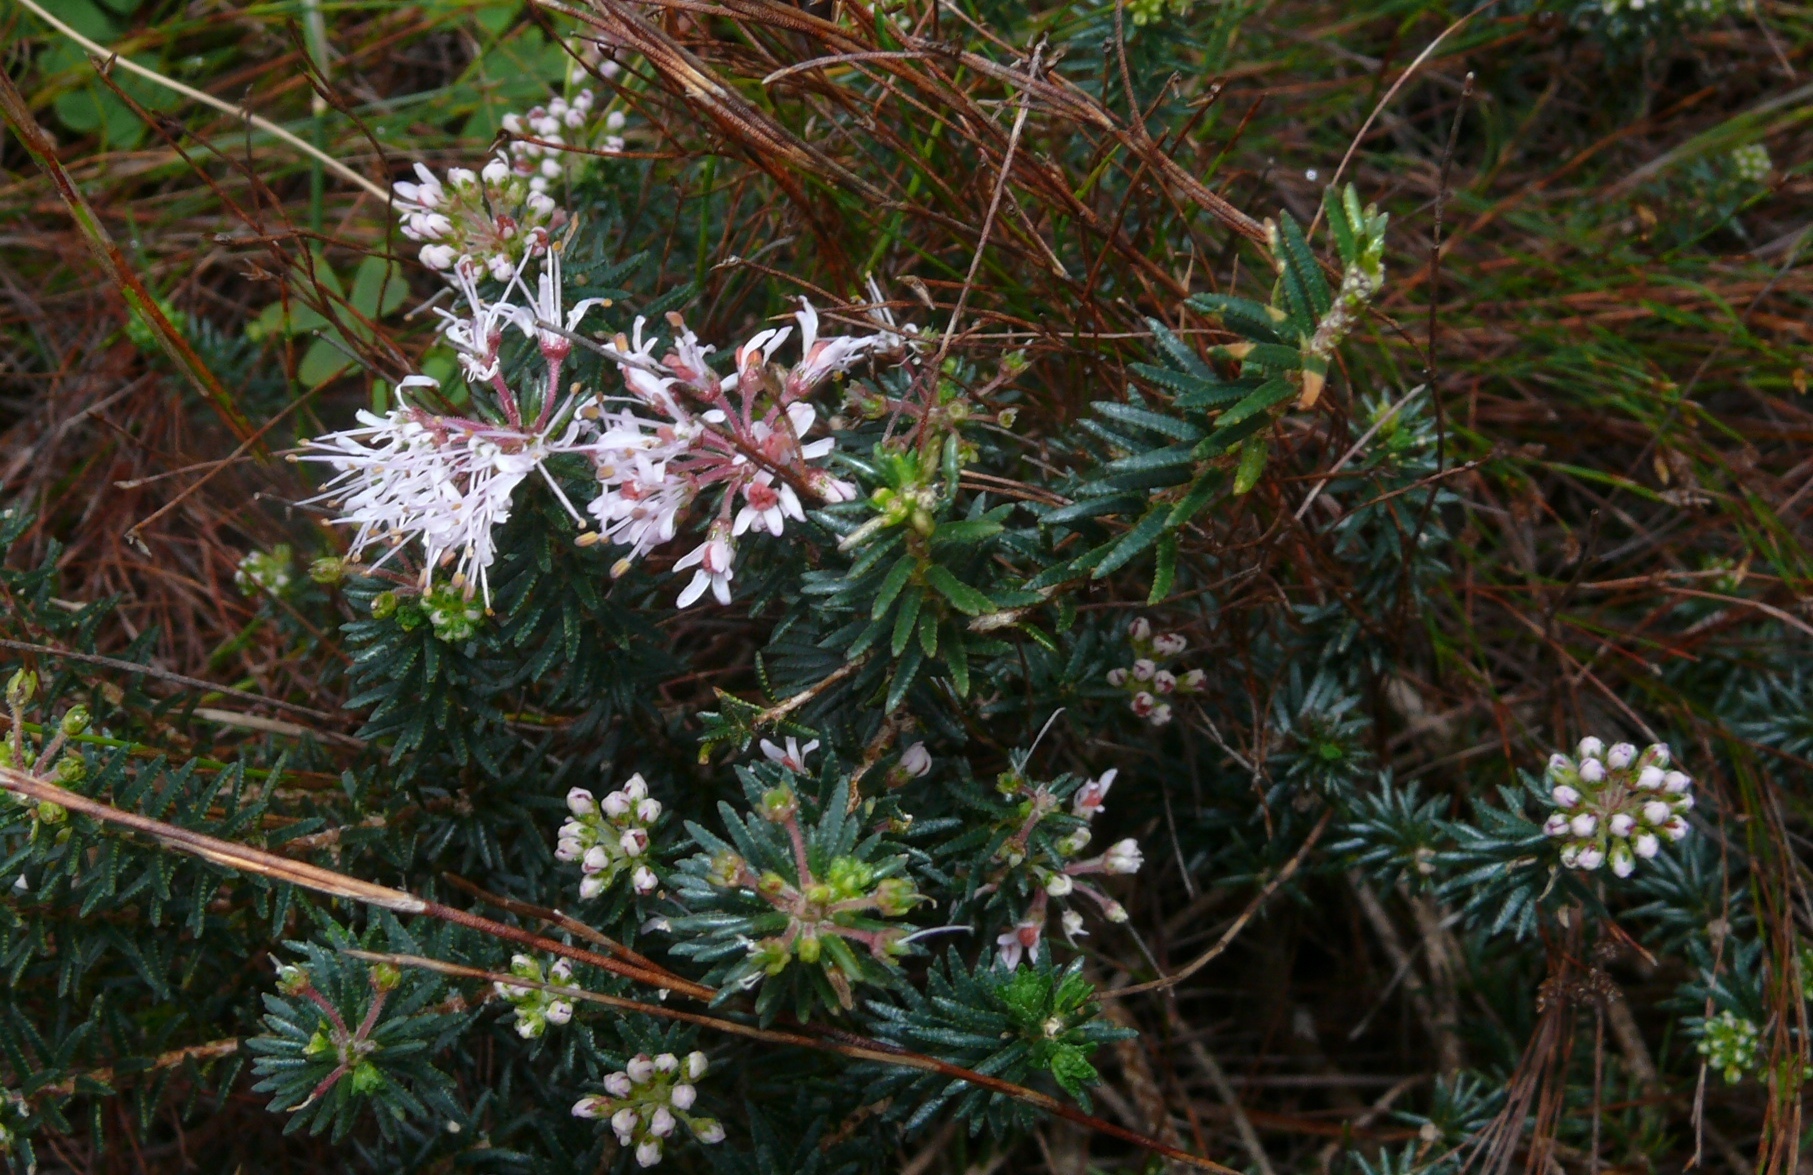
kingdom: Plantae
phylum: Tracheophyta
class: Magnoliopsida
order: Sapindales
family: Rutaceae
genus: Agathosma
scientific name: Agathosma serpyllacea
